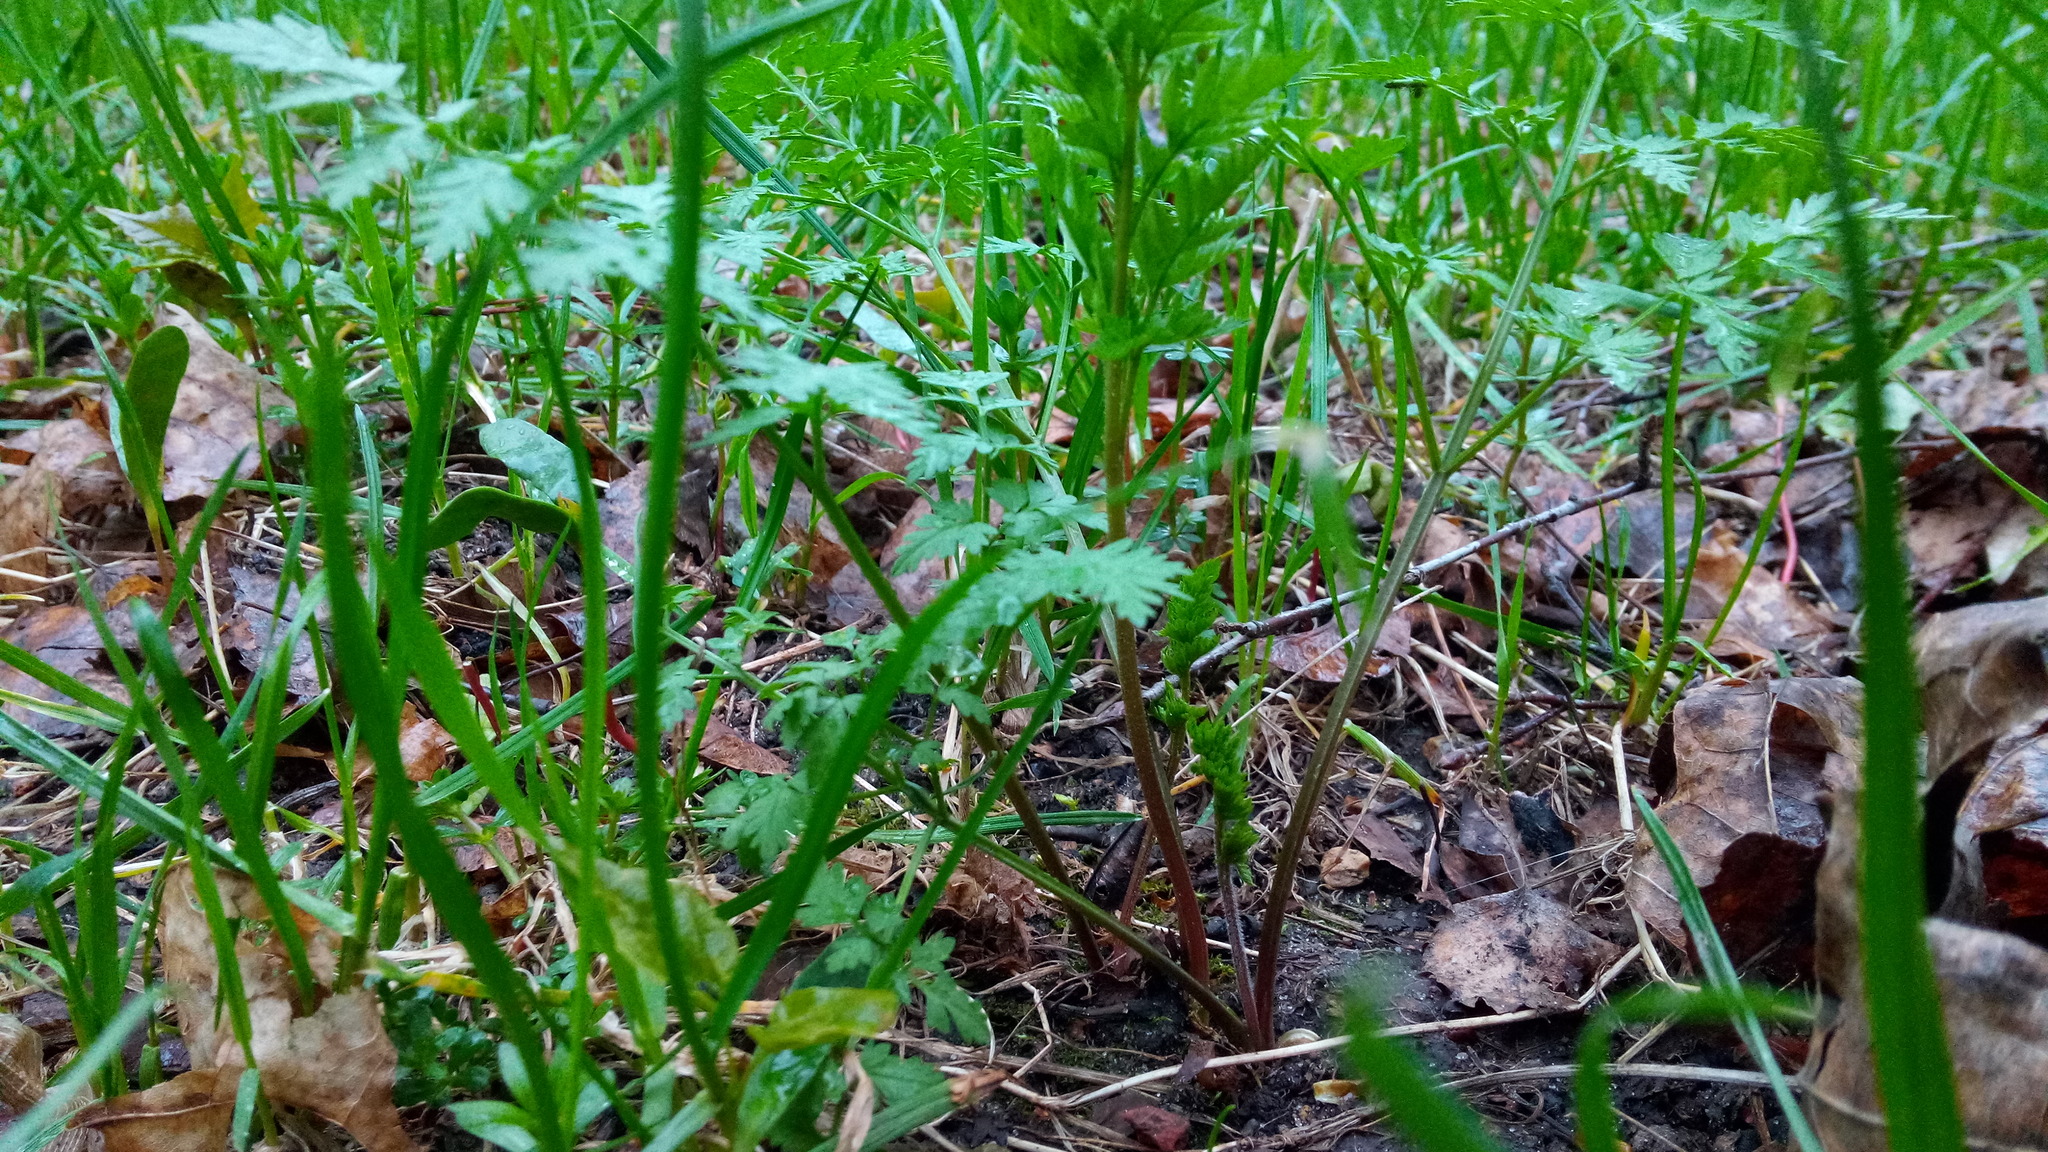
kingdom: Plantae
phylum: Tracheophyta
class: Magnoliopsida
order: Apiales
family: Apiaceae
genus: Anthriscus
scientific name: Anthriscus sylvestris
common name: Cow parsley
